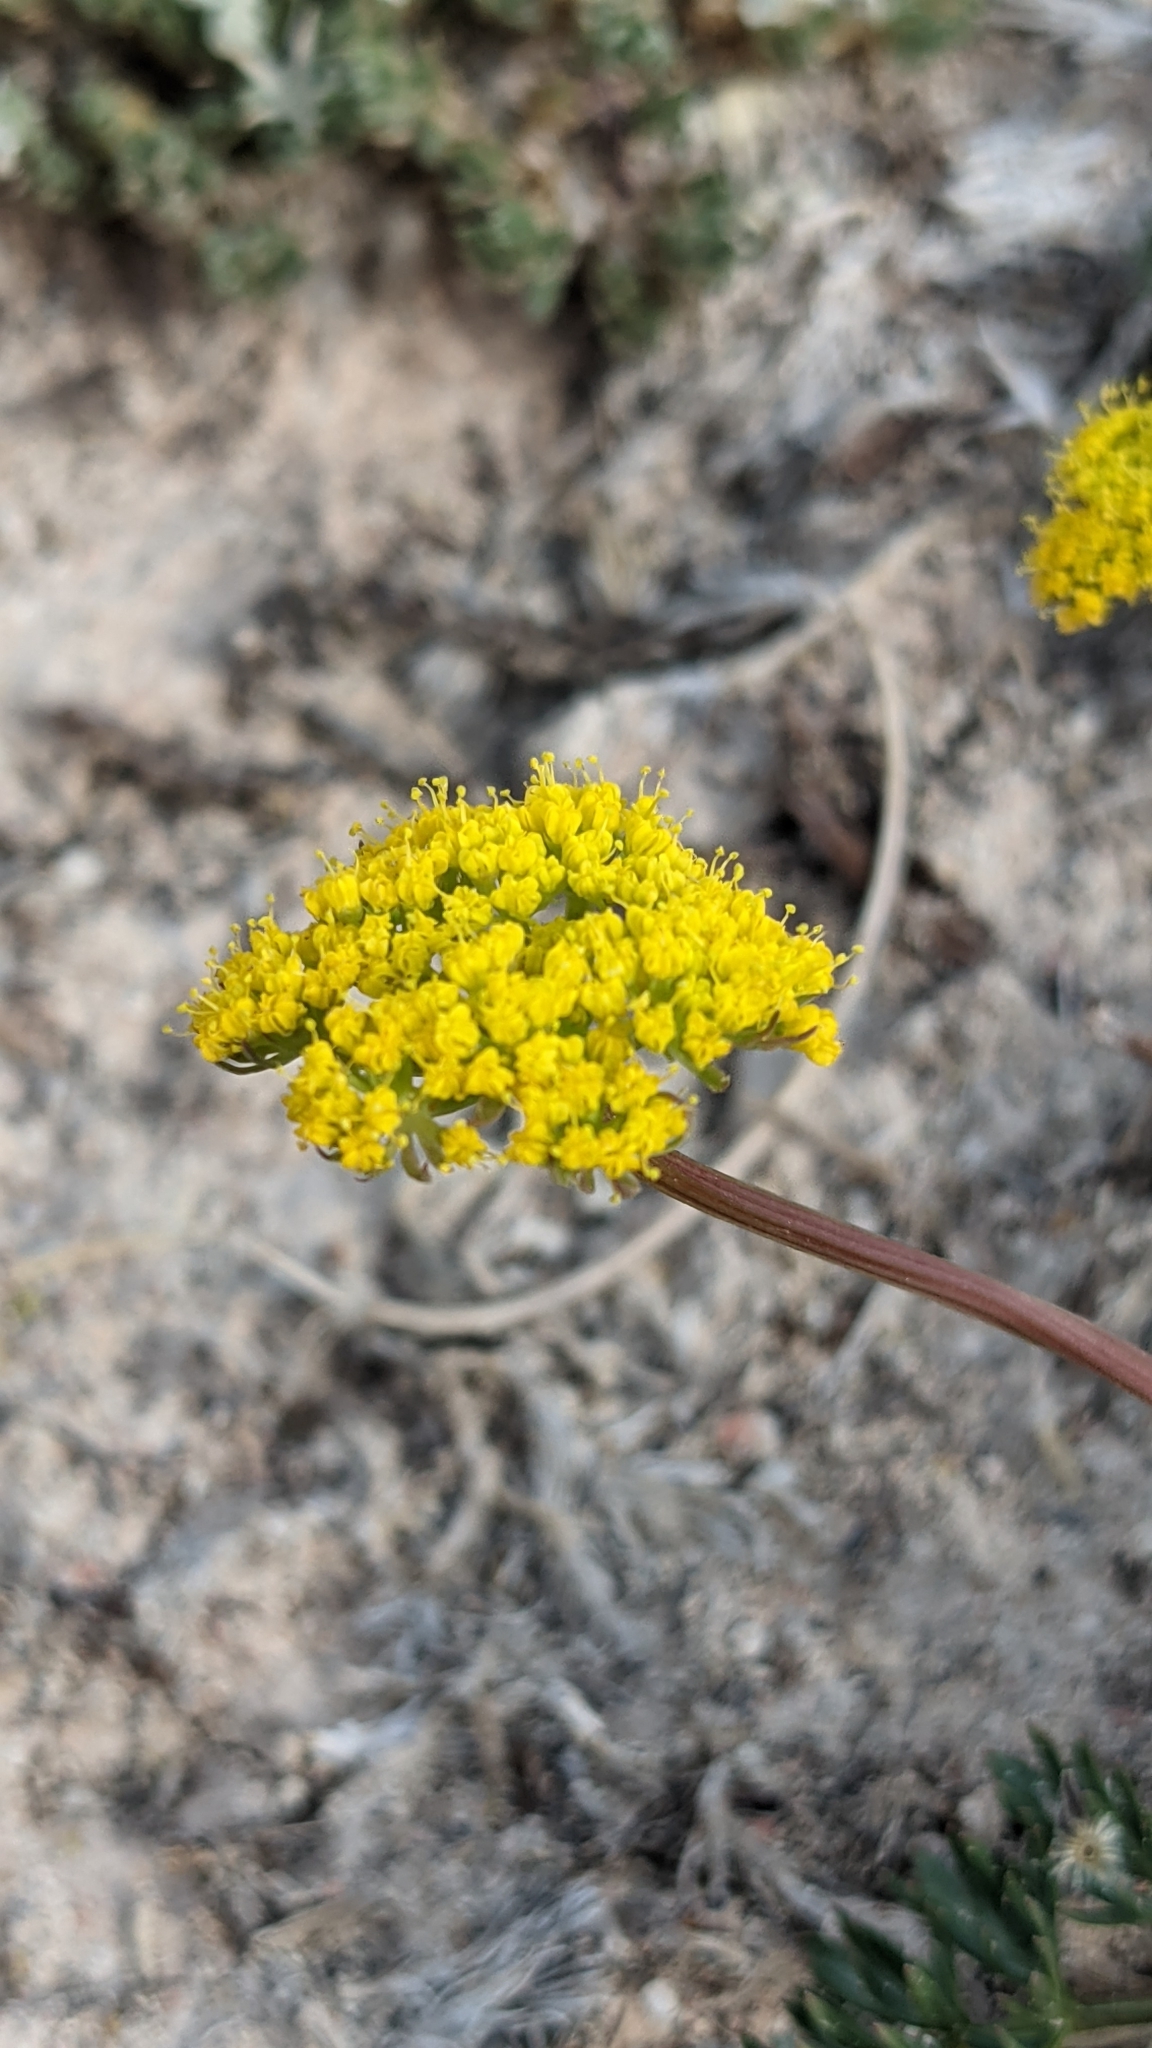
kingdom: Plantae
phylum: Tracheophyta
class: Magnoliopsida
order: Apiales
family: Apiaceae
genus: Cymopterus
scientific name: Cymopterus lemmonii
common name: Lemmon's spring-parsley
